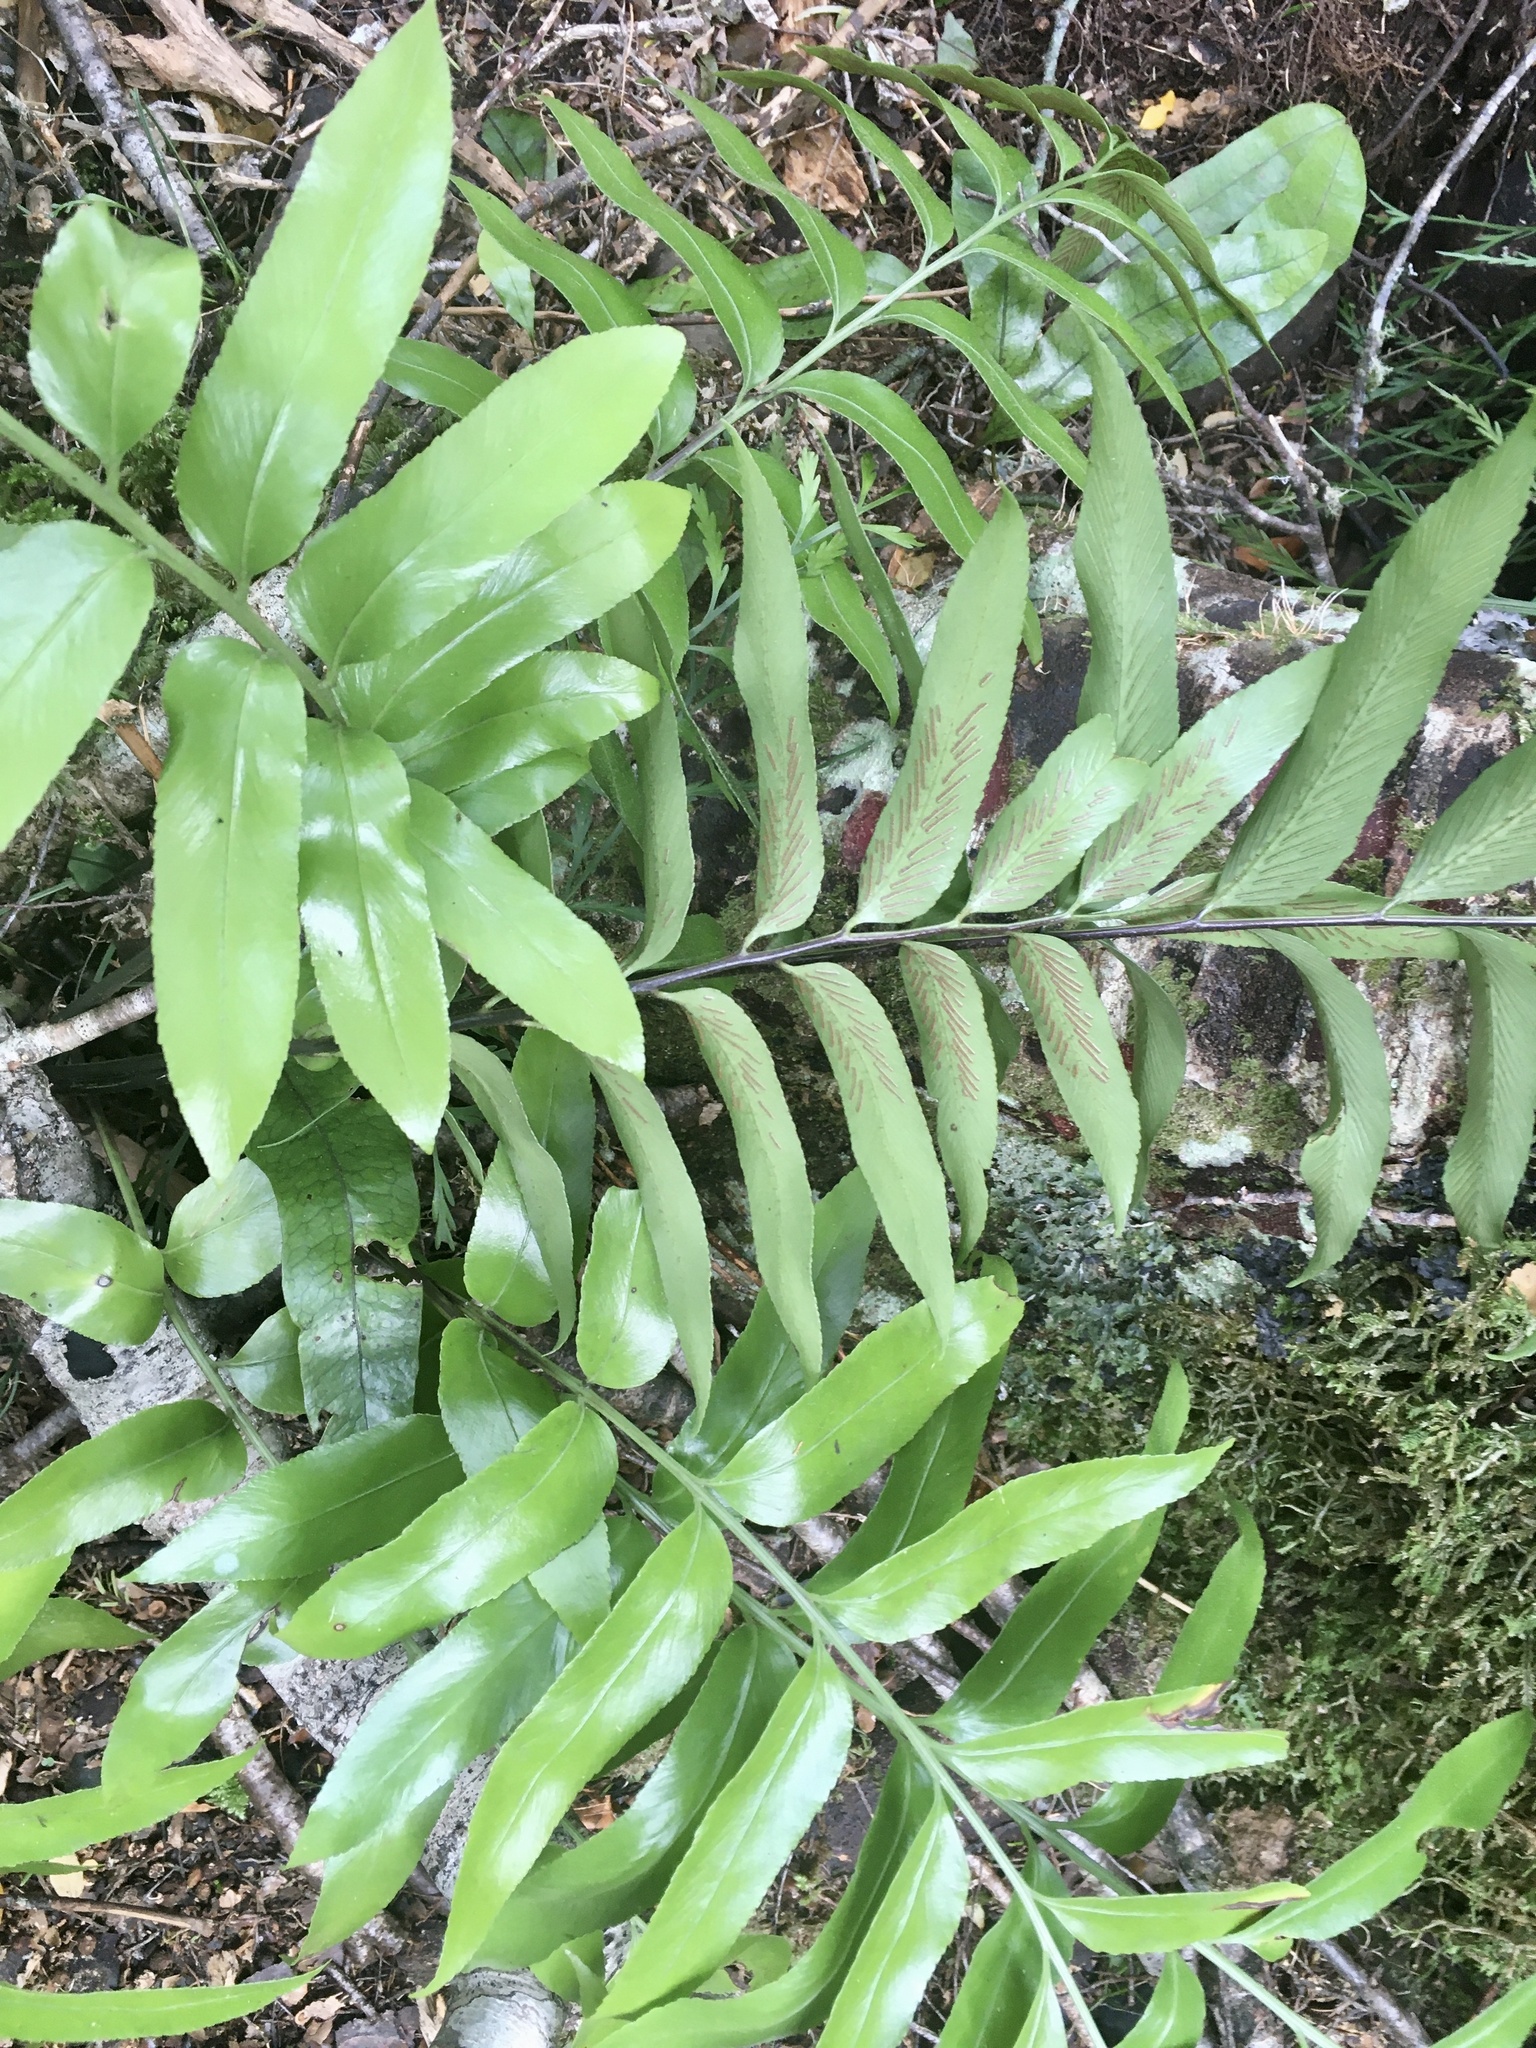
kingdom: Plantae
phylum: Tracheophyta
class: Polypodiopsida
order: Polypodiales
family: Aspleniaceae
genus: Asplenium
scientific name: Asplenium oblongifolium
